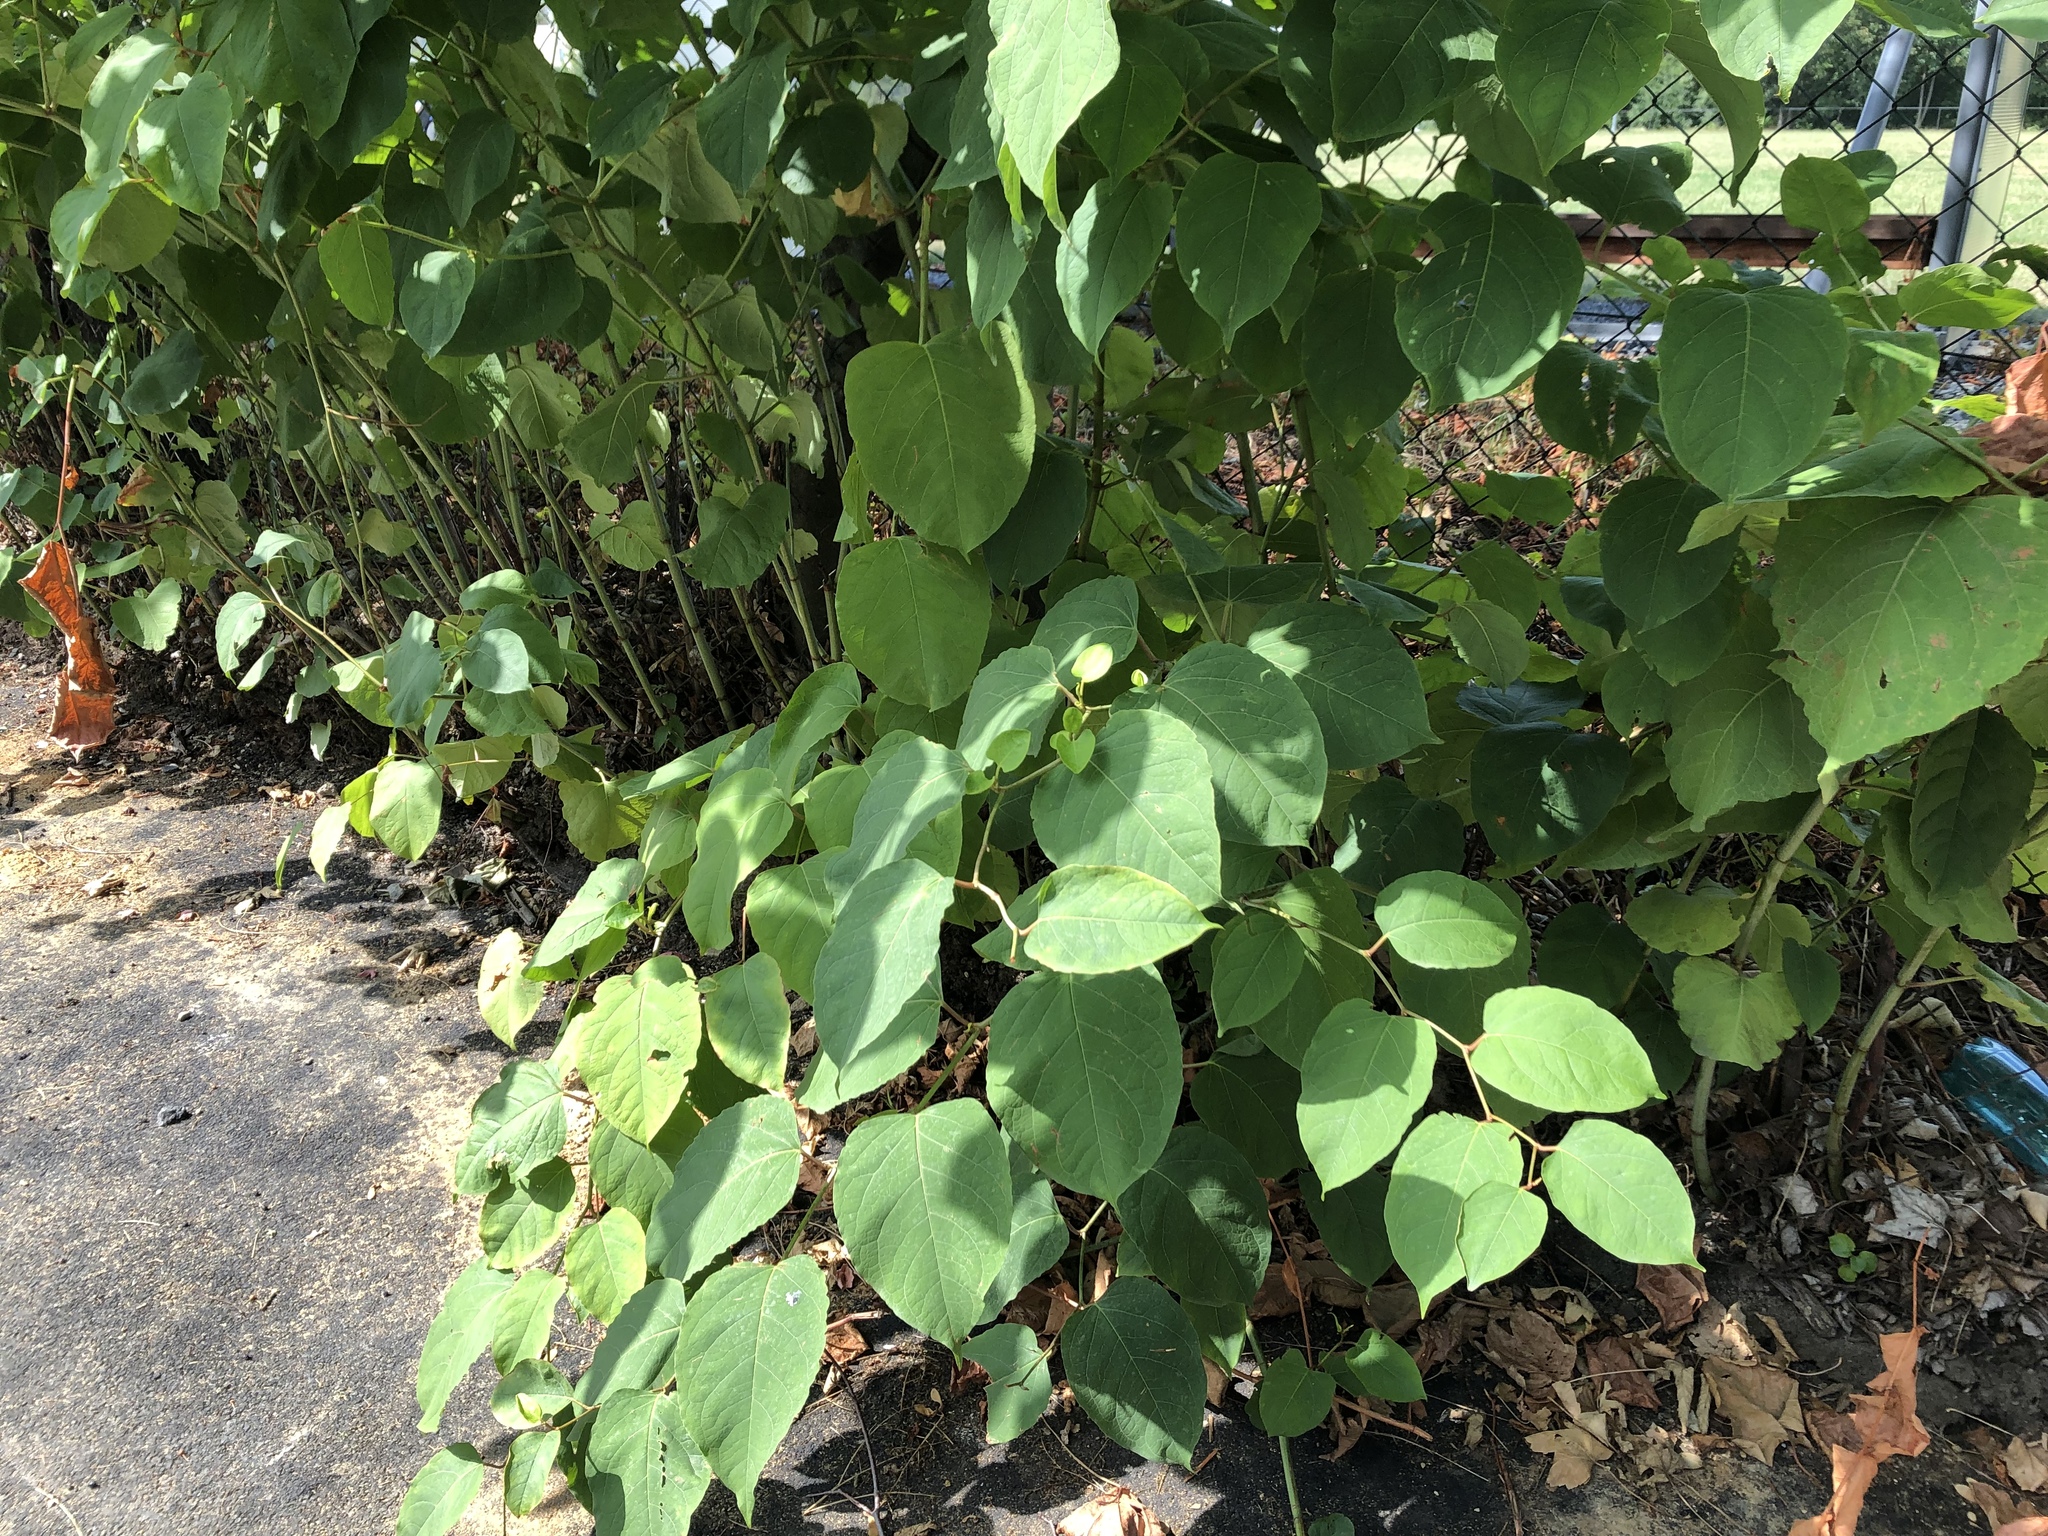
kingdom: Plantae
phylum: Tracheophyta
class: Magnoliopsida
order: Caryophyllales
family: Polygonaceae
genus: Reynoutria
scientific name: Reynoutria bohemica
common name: Bohemian knotweed
